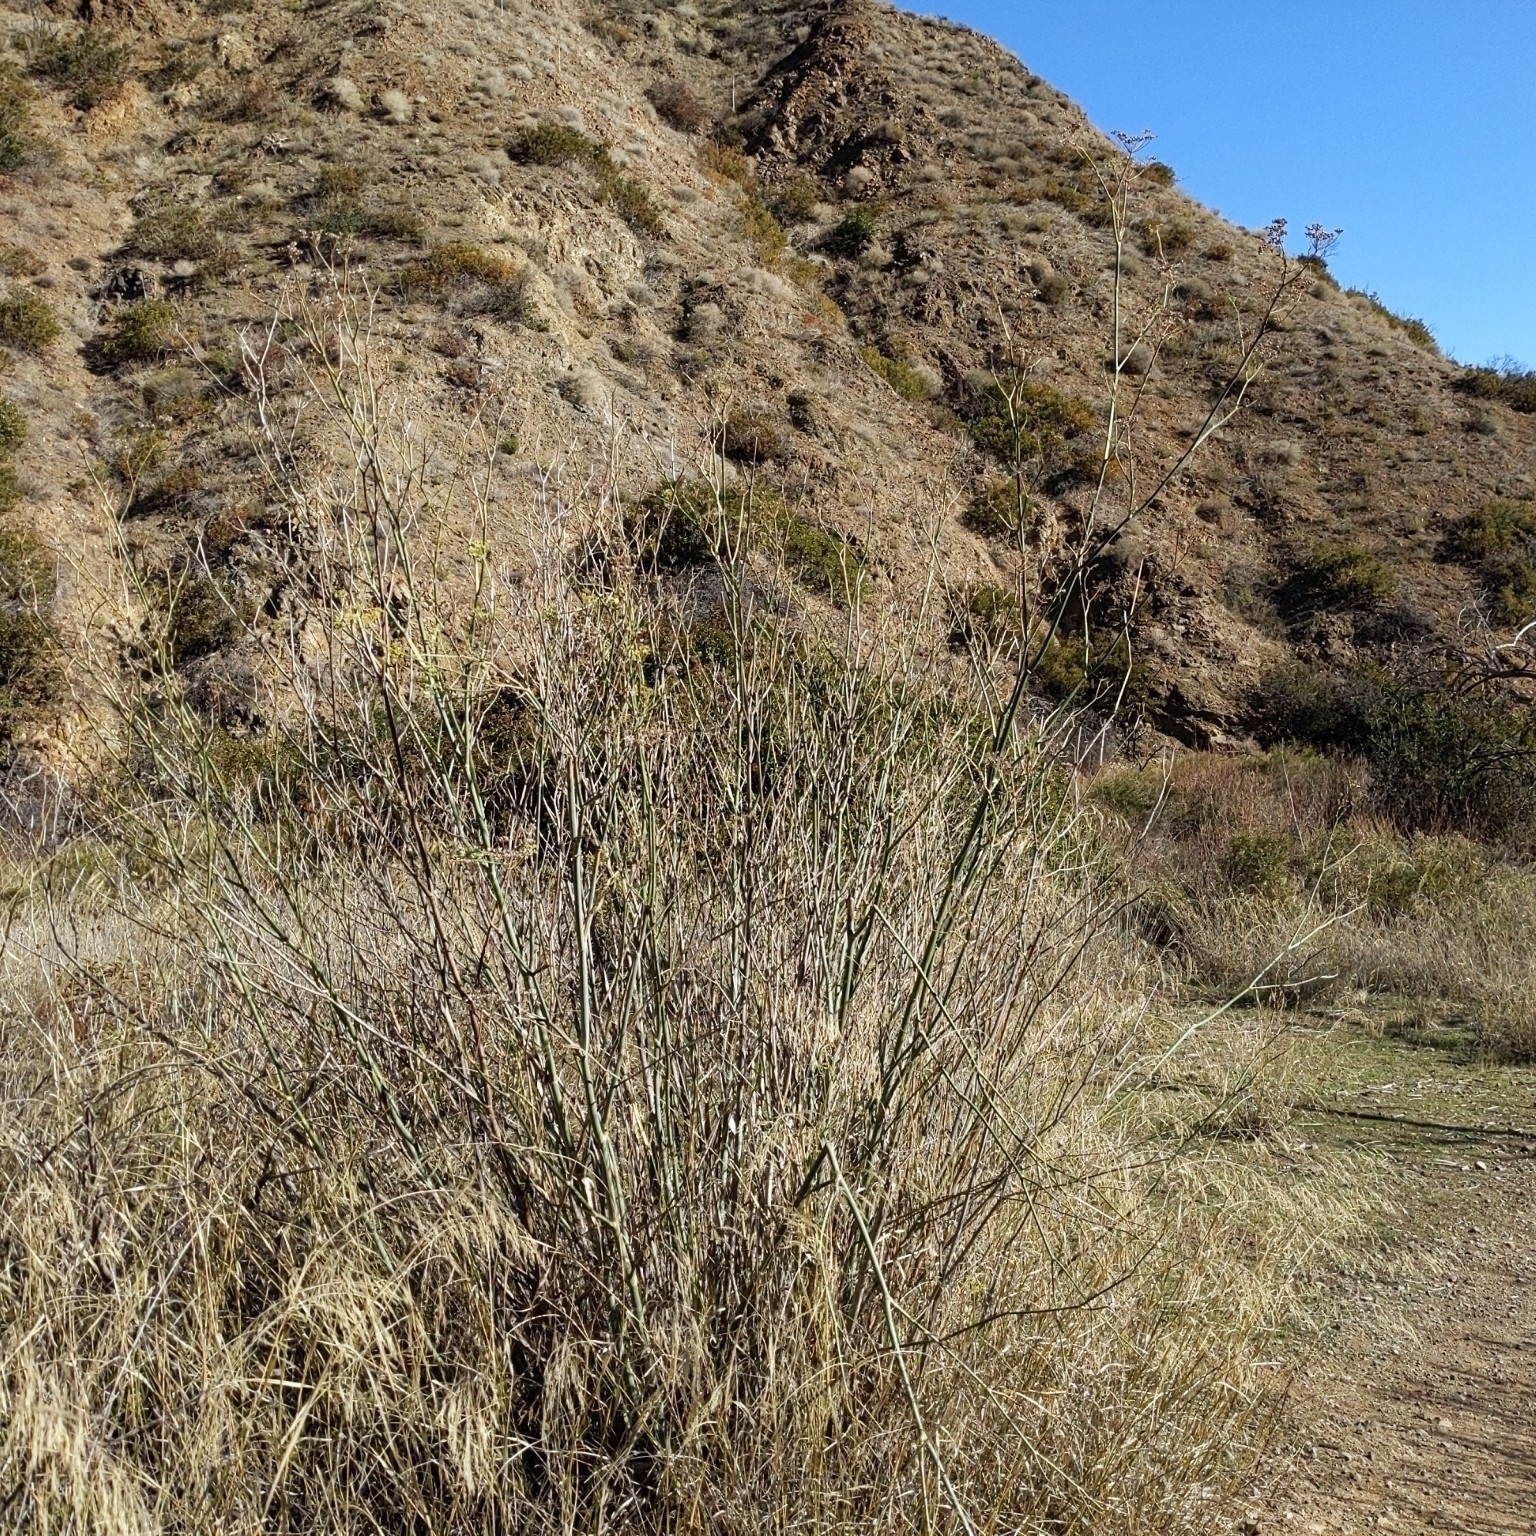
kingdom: Plantae
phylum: Tracheophyta
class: Magnoliopsida
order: Apiales
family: Apiaceae
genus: Foeniculum
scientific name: Foeniculum vulgare
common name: Fennel
